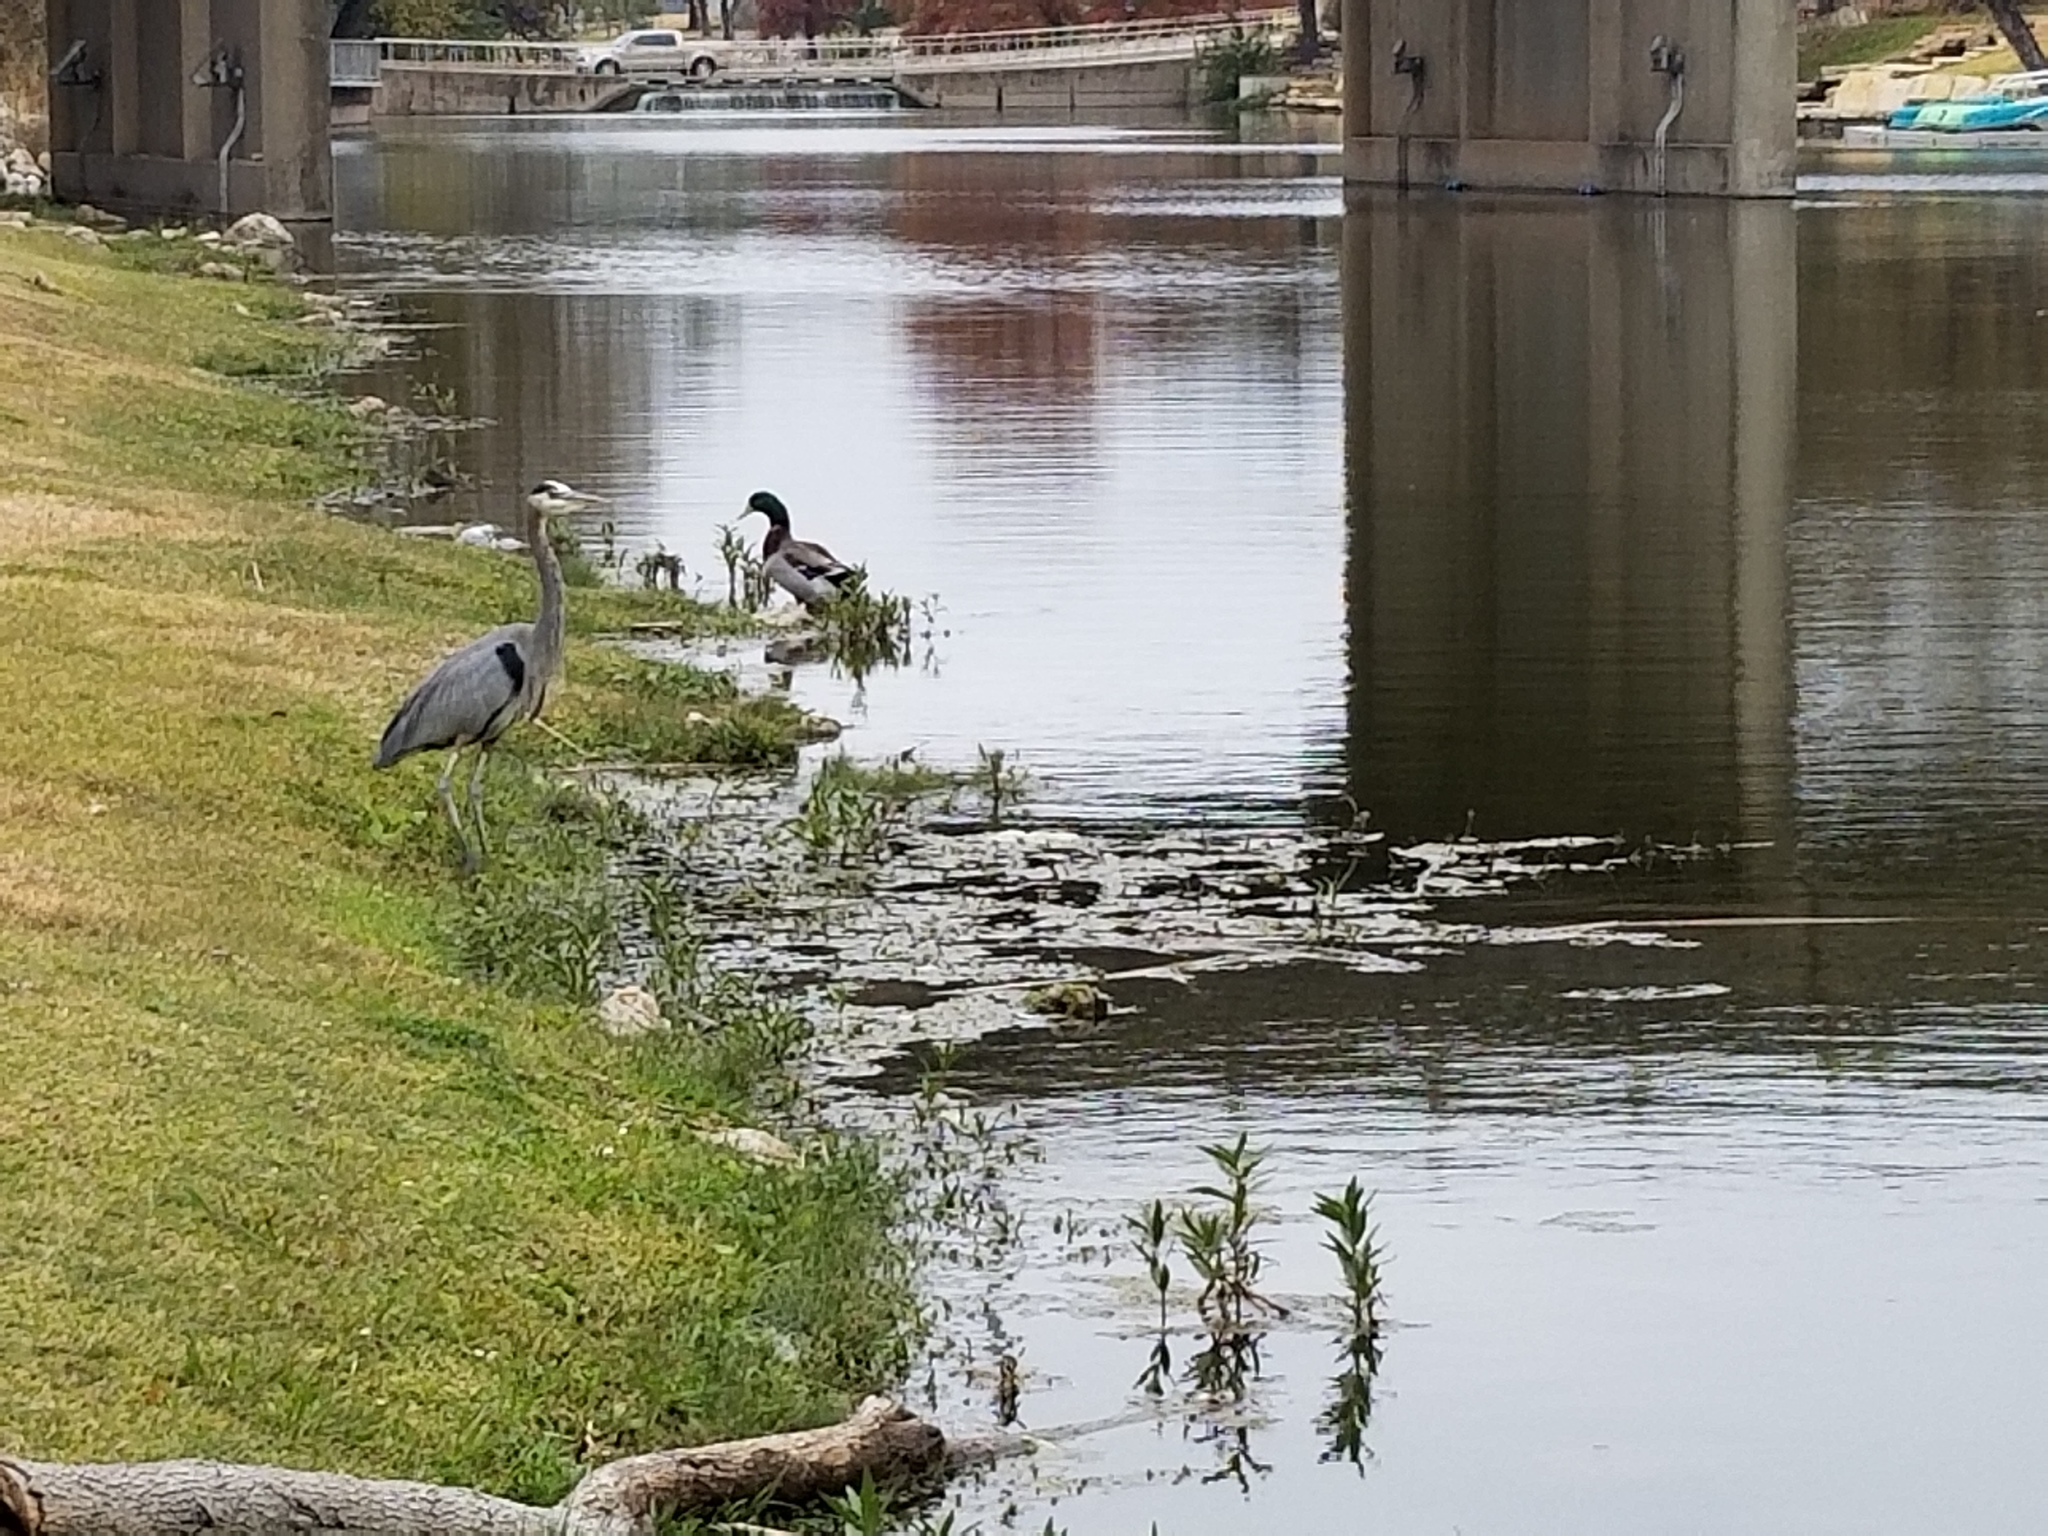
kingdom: Animalia
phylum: Chordata
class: Aves
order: Pelecaniformes
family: Ardeidae
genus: Ardea
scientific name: Ardea herodias
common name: Great blue heron
